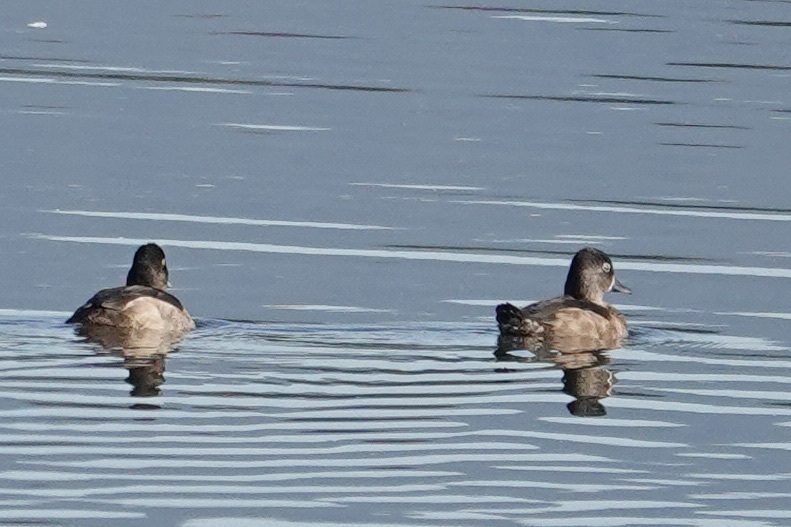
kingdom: Animalia
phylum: Chordata
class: Aves
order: Anseriformes
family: Anatidae
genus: Aythya
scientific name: Aythya collaris
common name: Ring-necked duck
